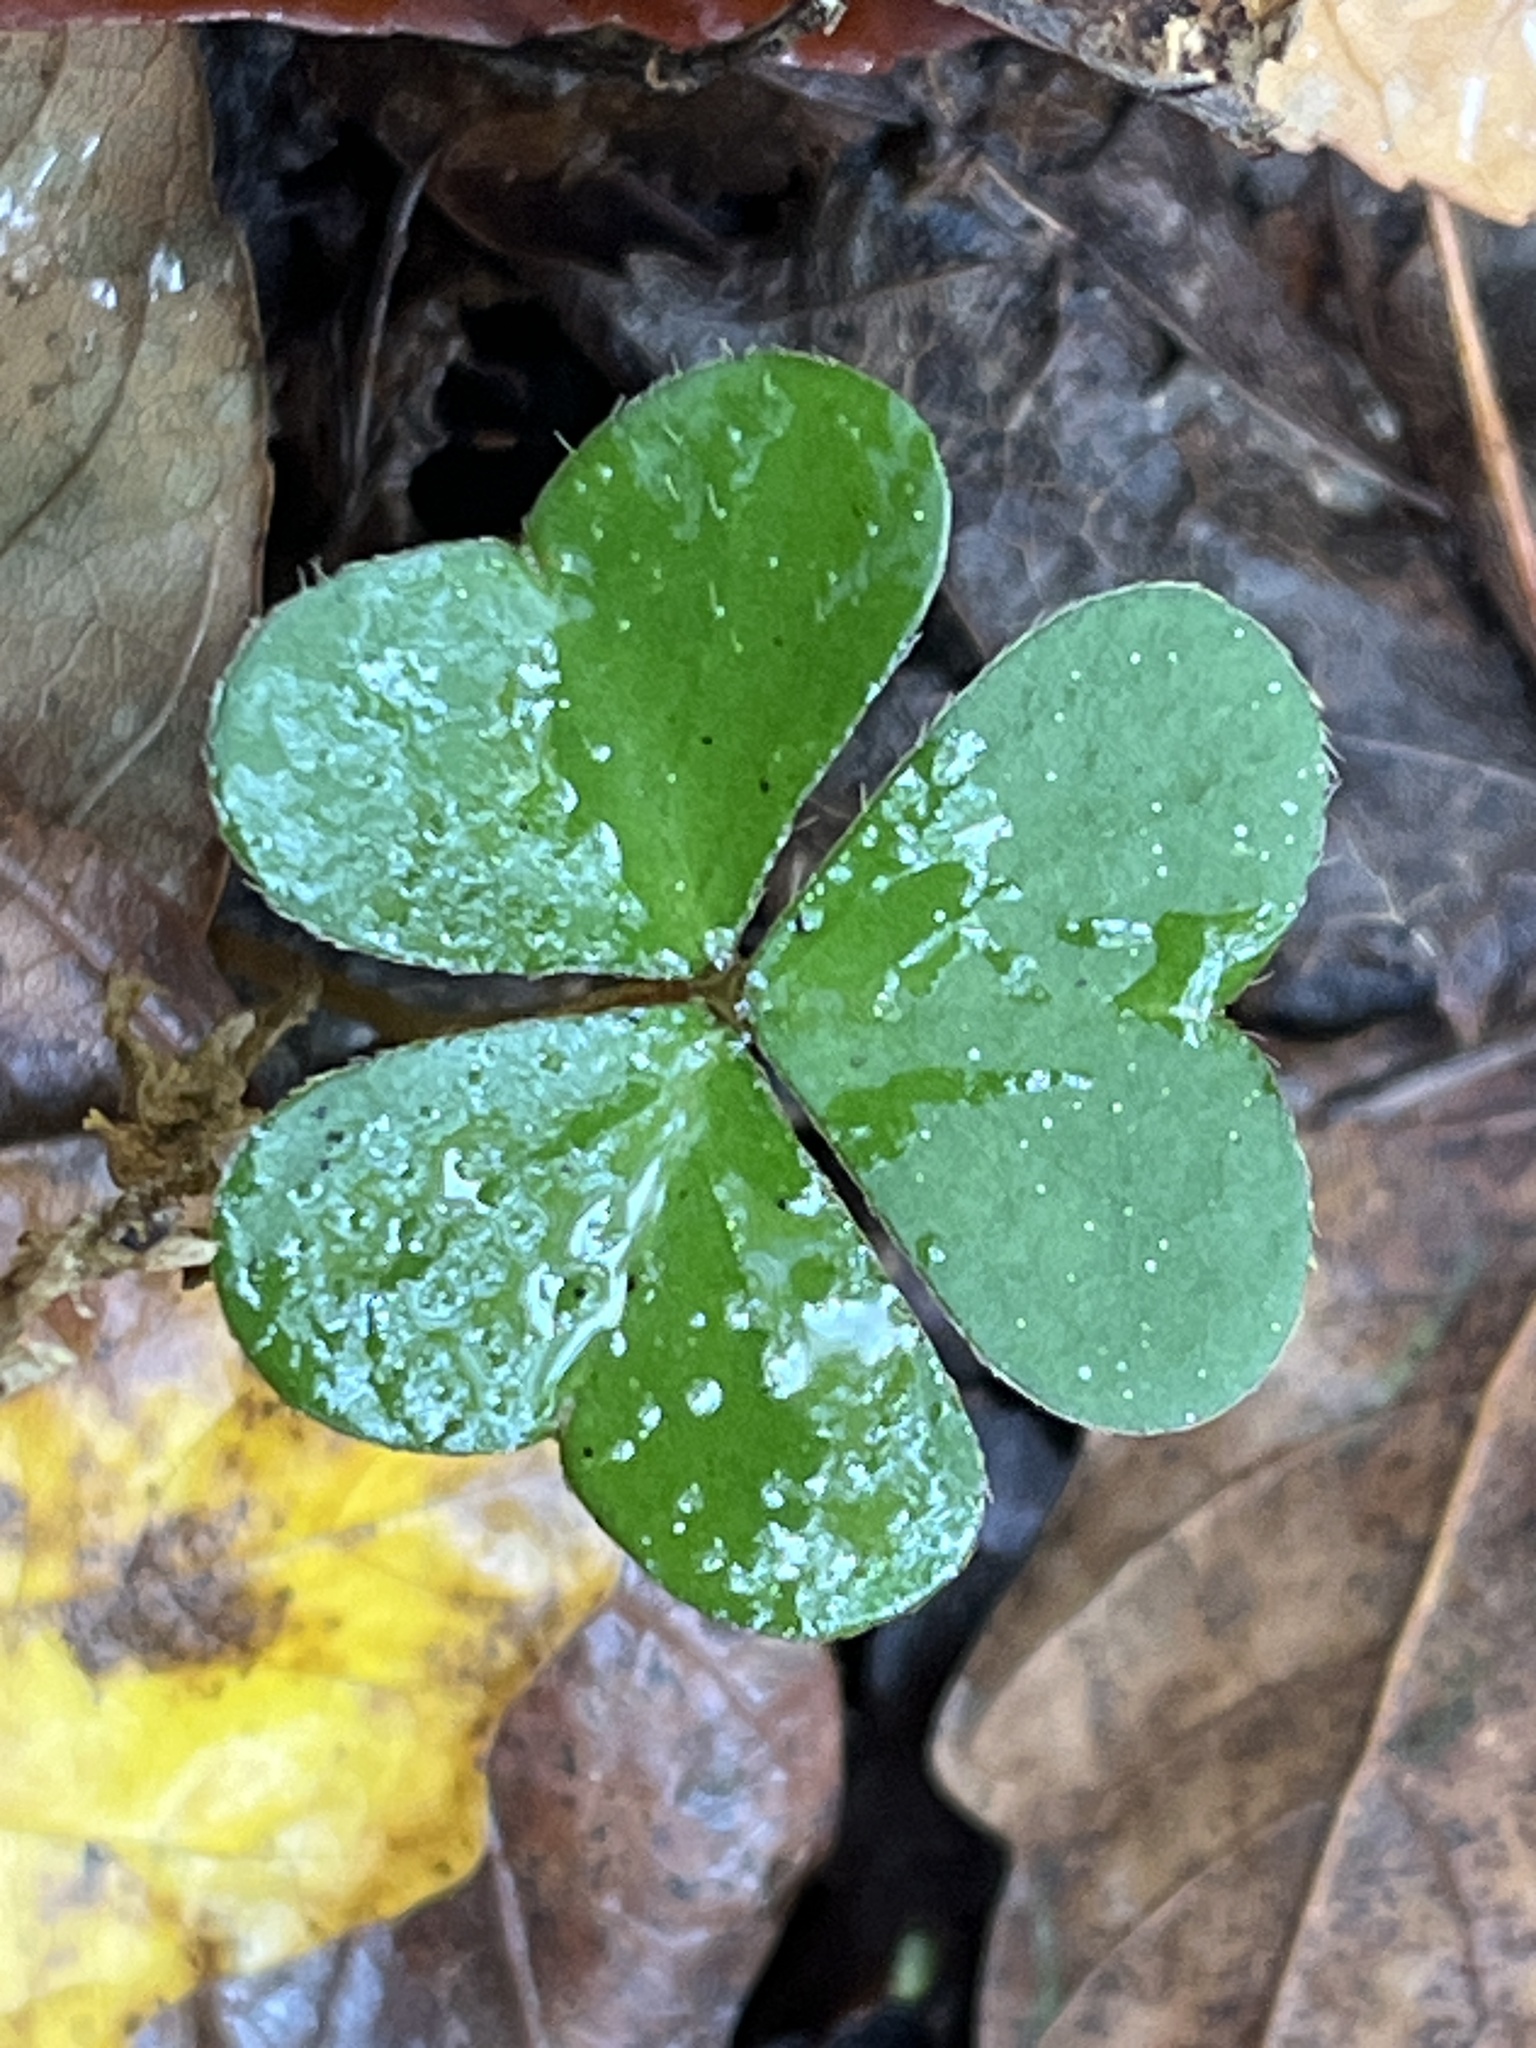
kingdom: Plantae
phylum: Tracheophyta
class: Magnoliopsida
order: Oxalidales
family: Oxalidaceae
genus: Oxalis
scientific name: Oxalis montana
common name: American wood-sorrel
